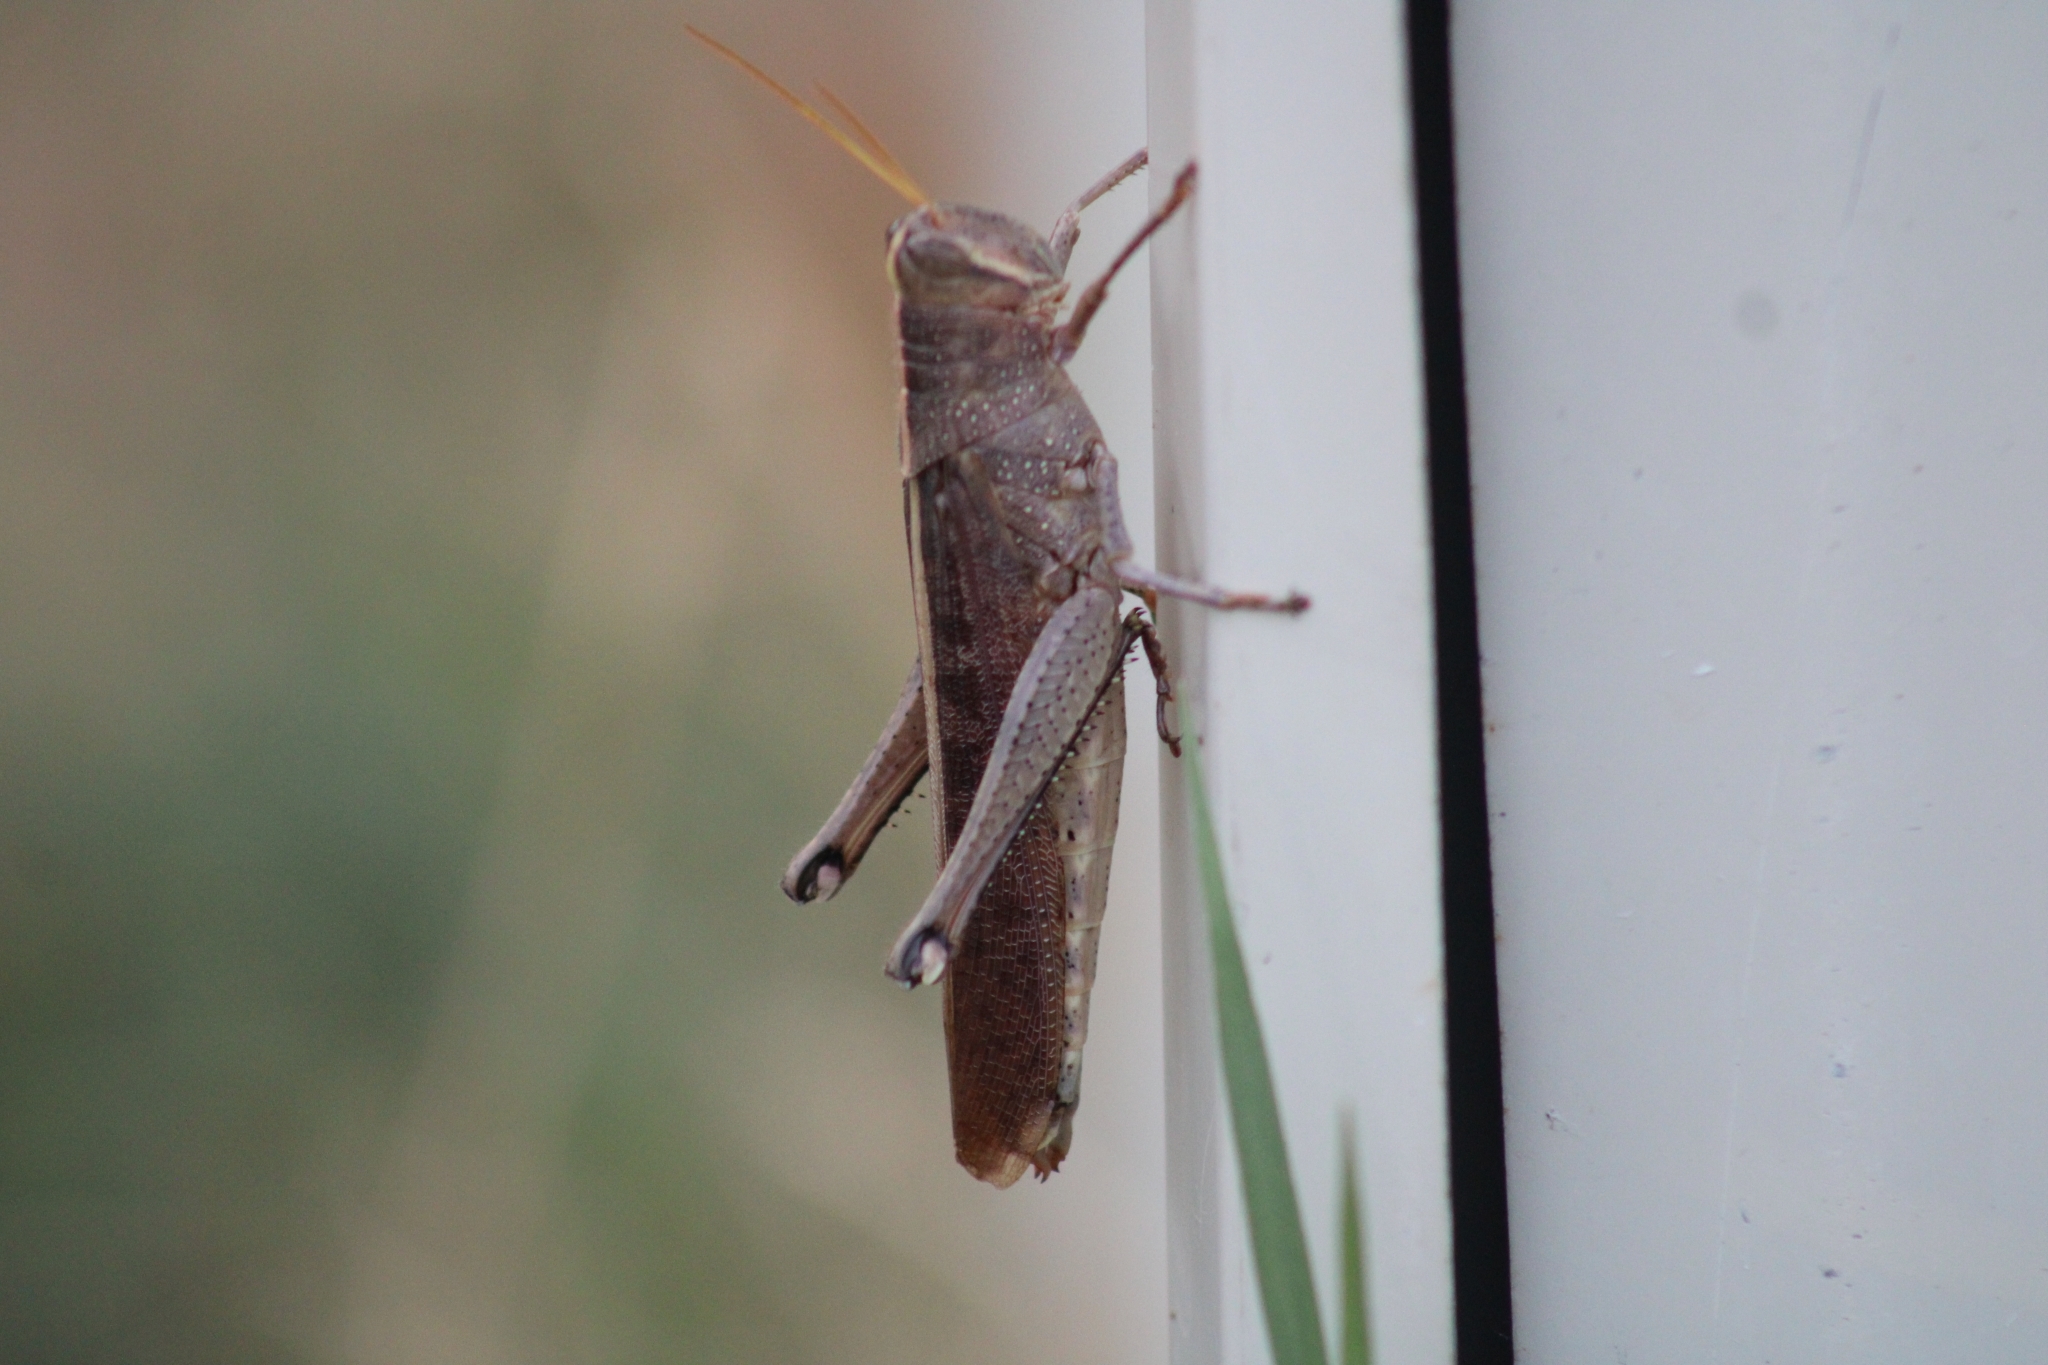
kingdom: Animalia
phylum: Arthropoda
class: Insecta
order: Orthoptera
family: Acrididae
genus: Schistocerca
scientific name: Schistocerca lineata
